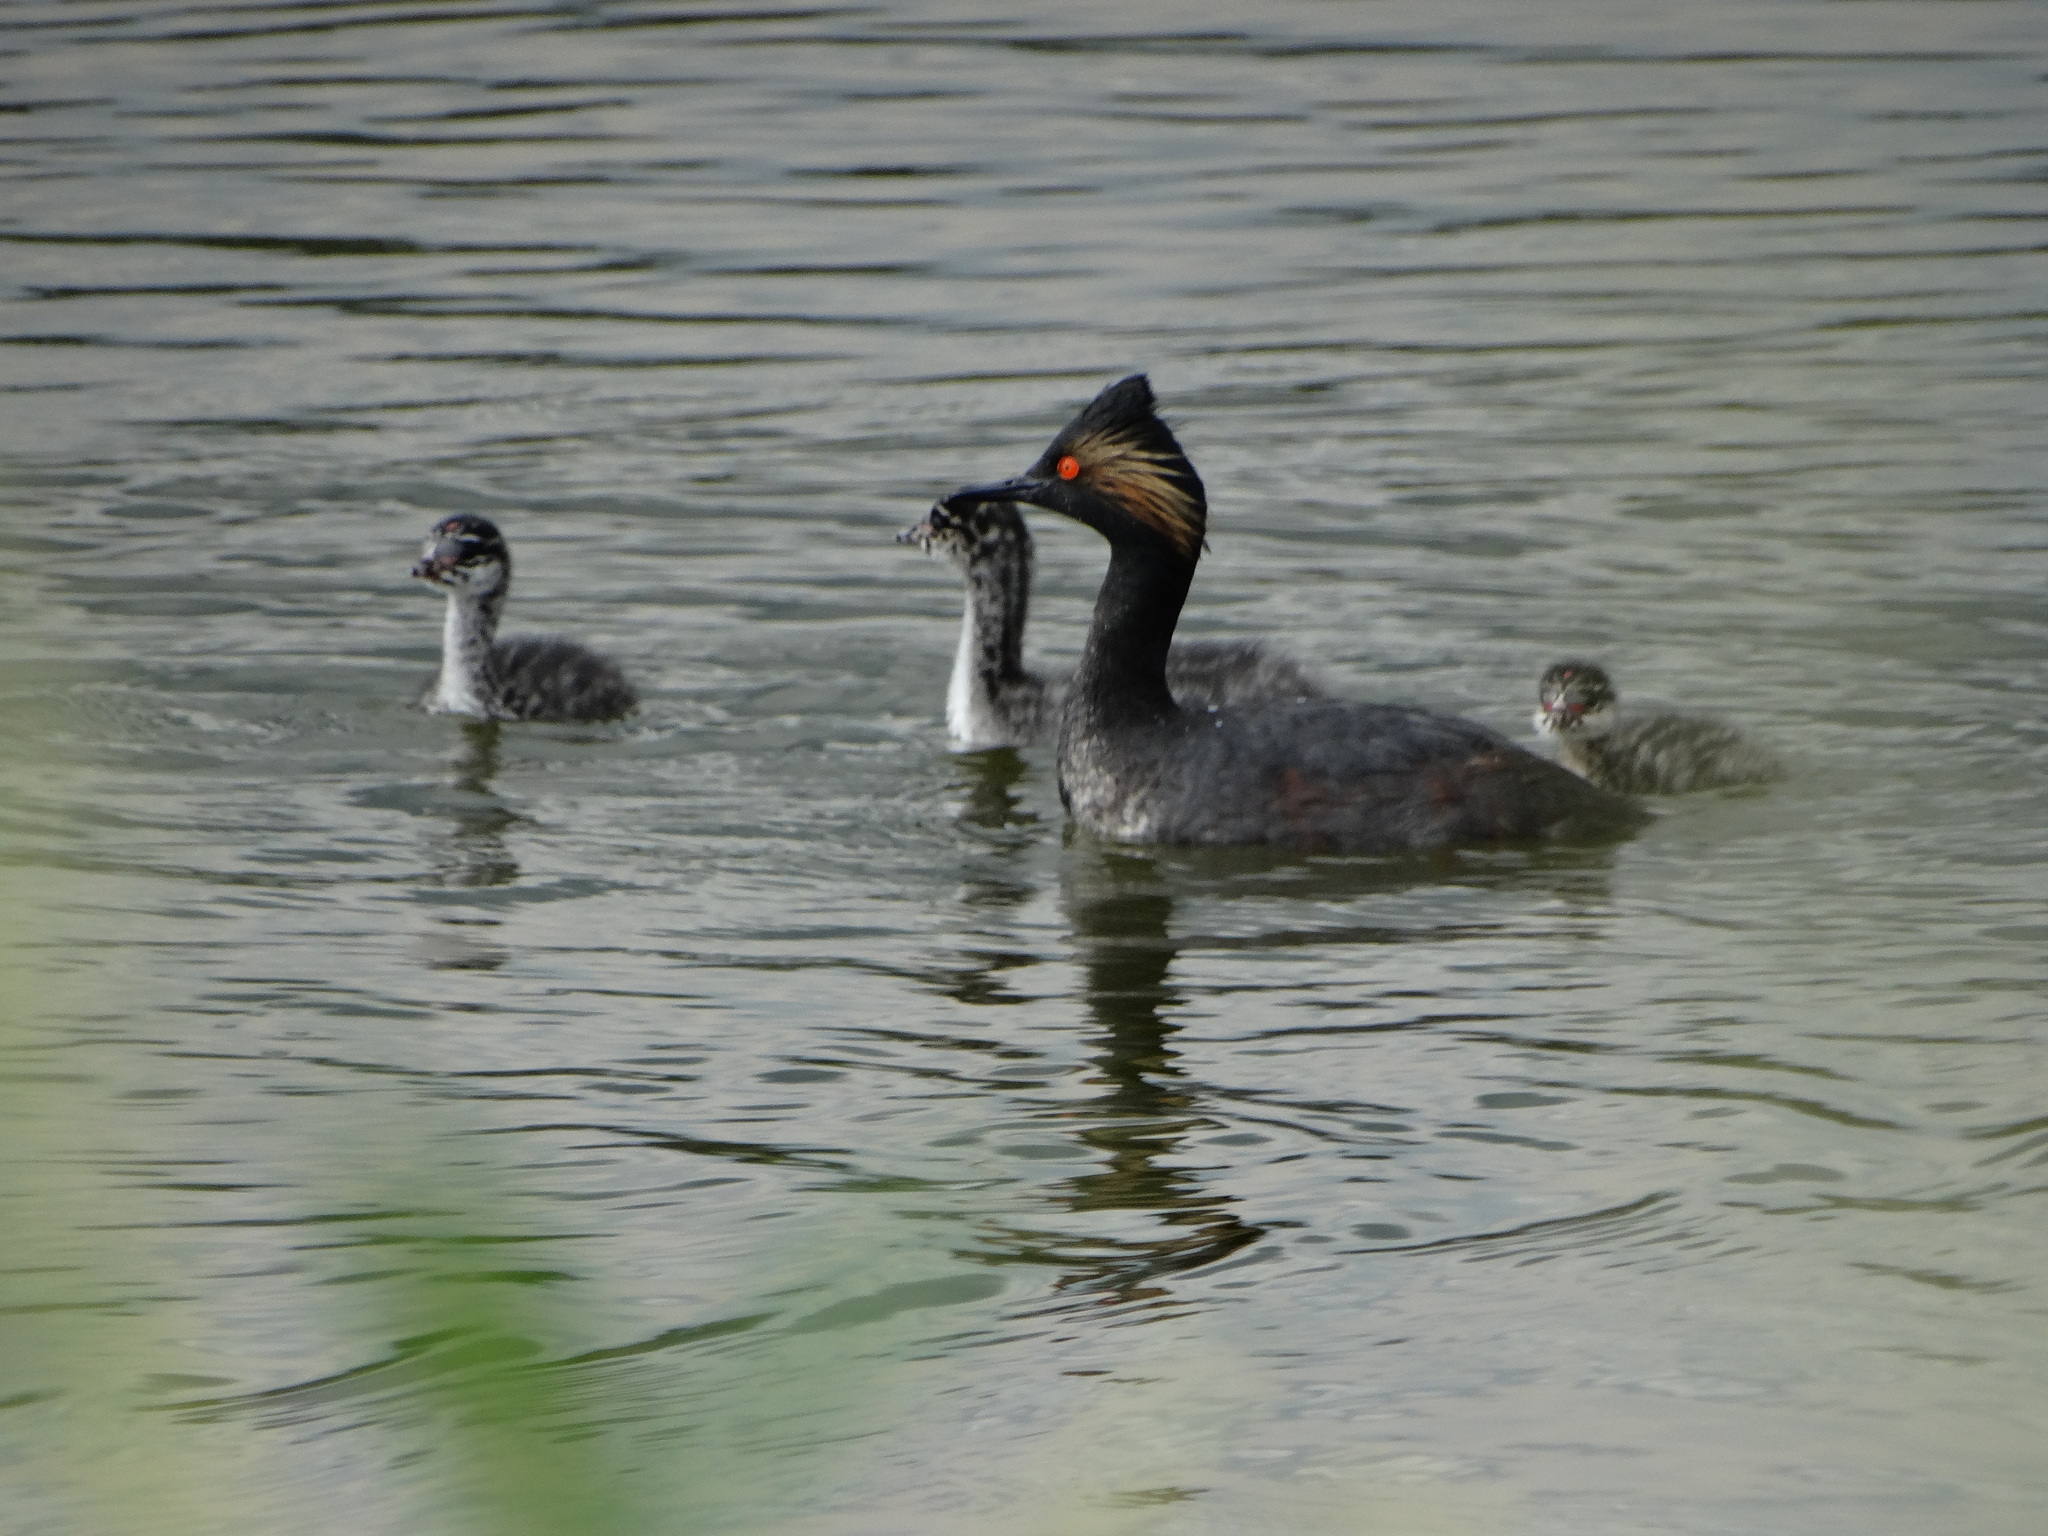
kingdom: Animalia
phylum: Chordata
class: Aves
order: Podicipediformes
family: Podicipedidae
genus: Podiceps
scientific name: Podiceps nigricollis
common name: Black-necked grebe
